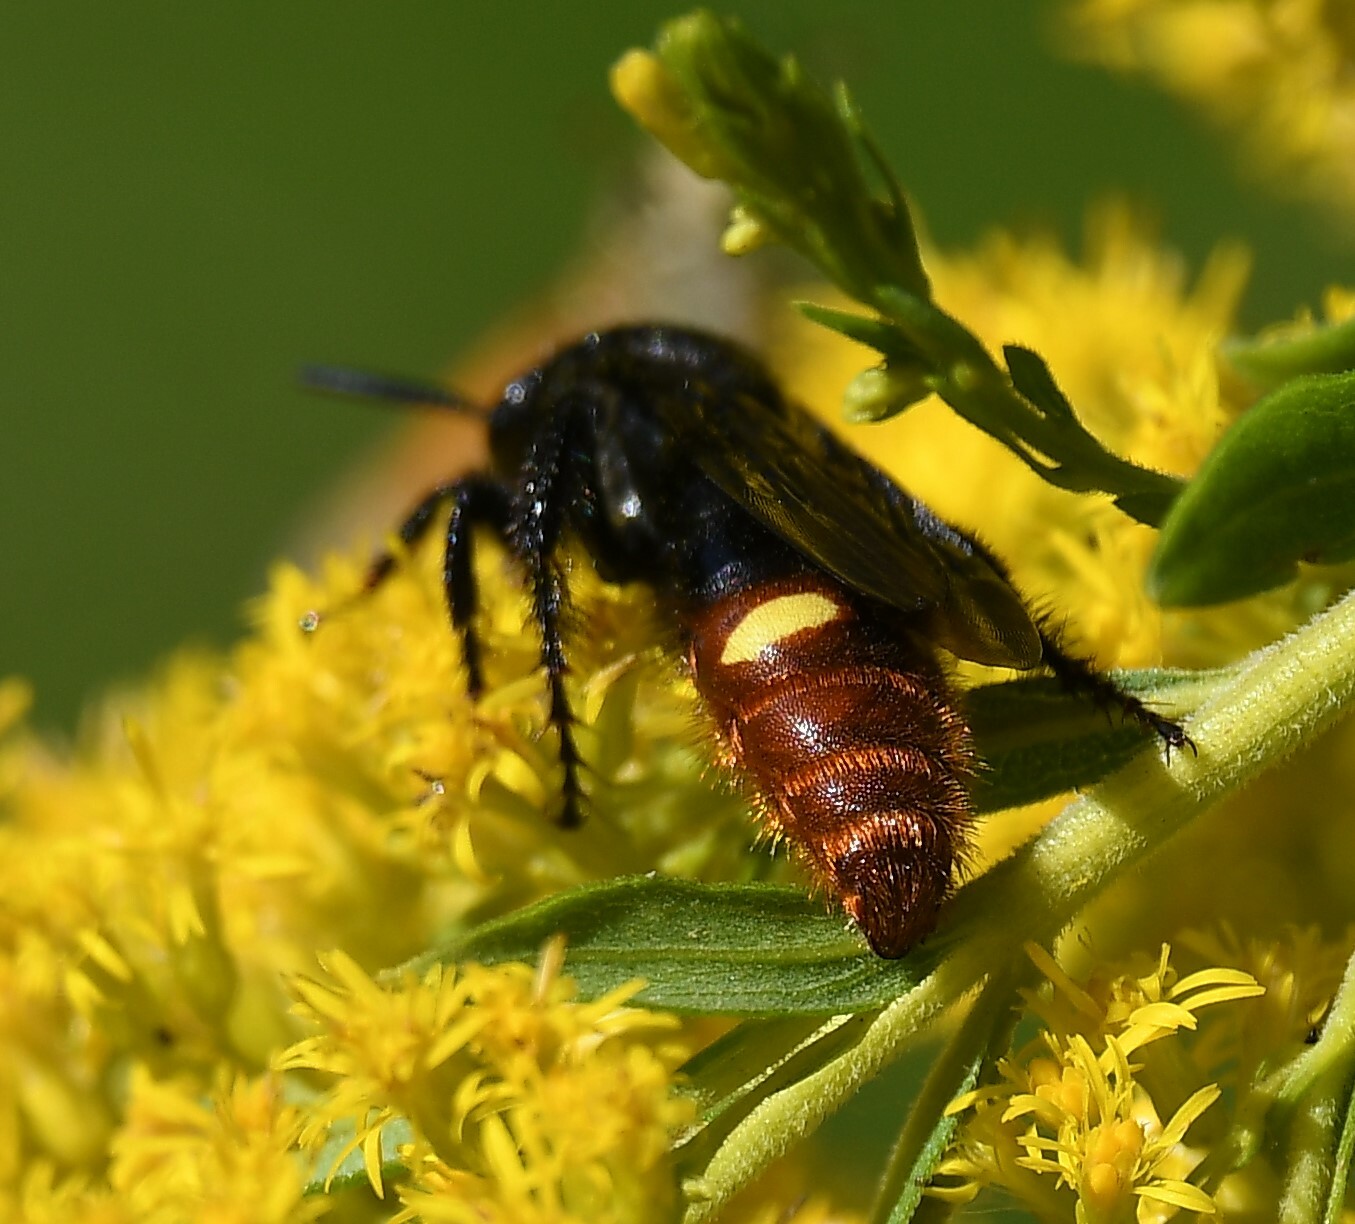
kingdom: Animalia
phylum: Arthropoda
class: Insecta
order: Hymenoptera
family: Scoliidae
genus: Scolia
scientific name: Scolia dubia
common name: Blue-winged scoliid wasp
